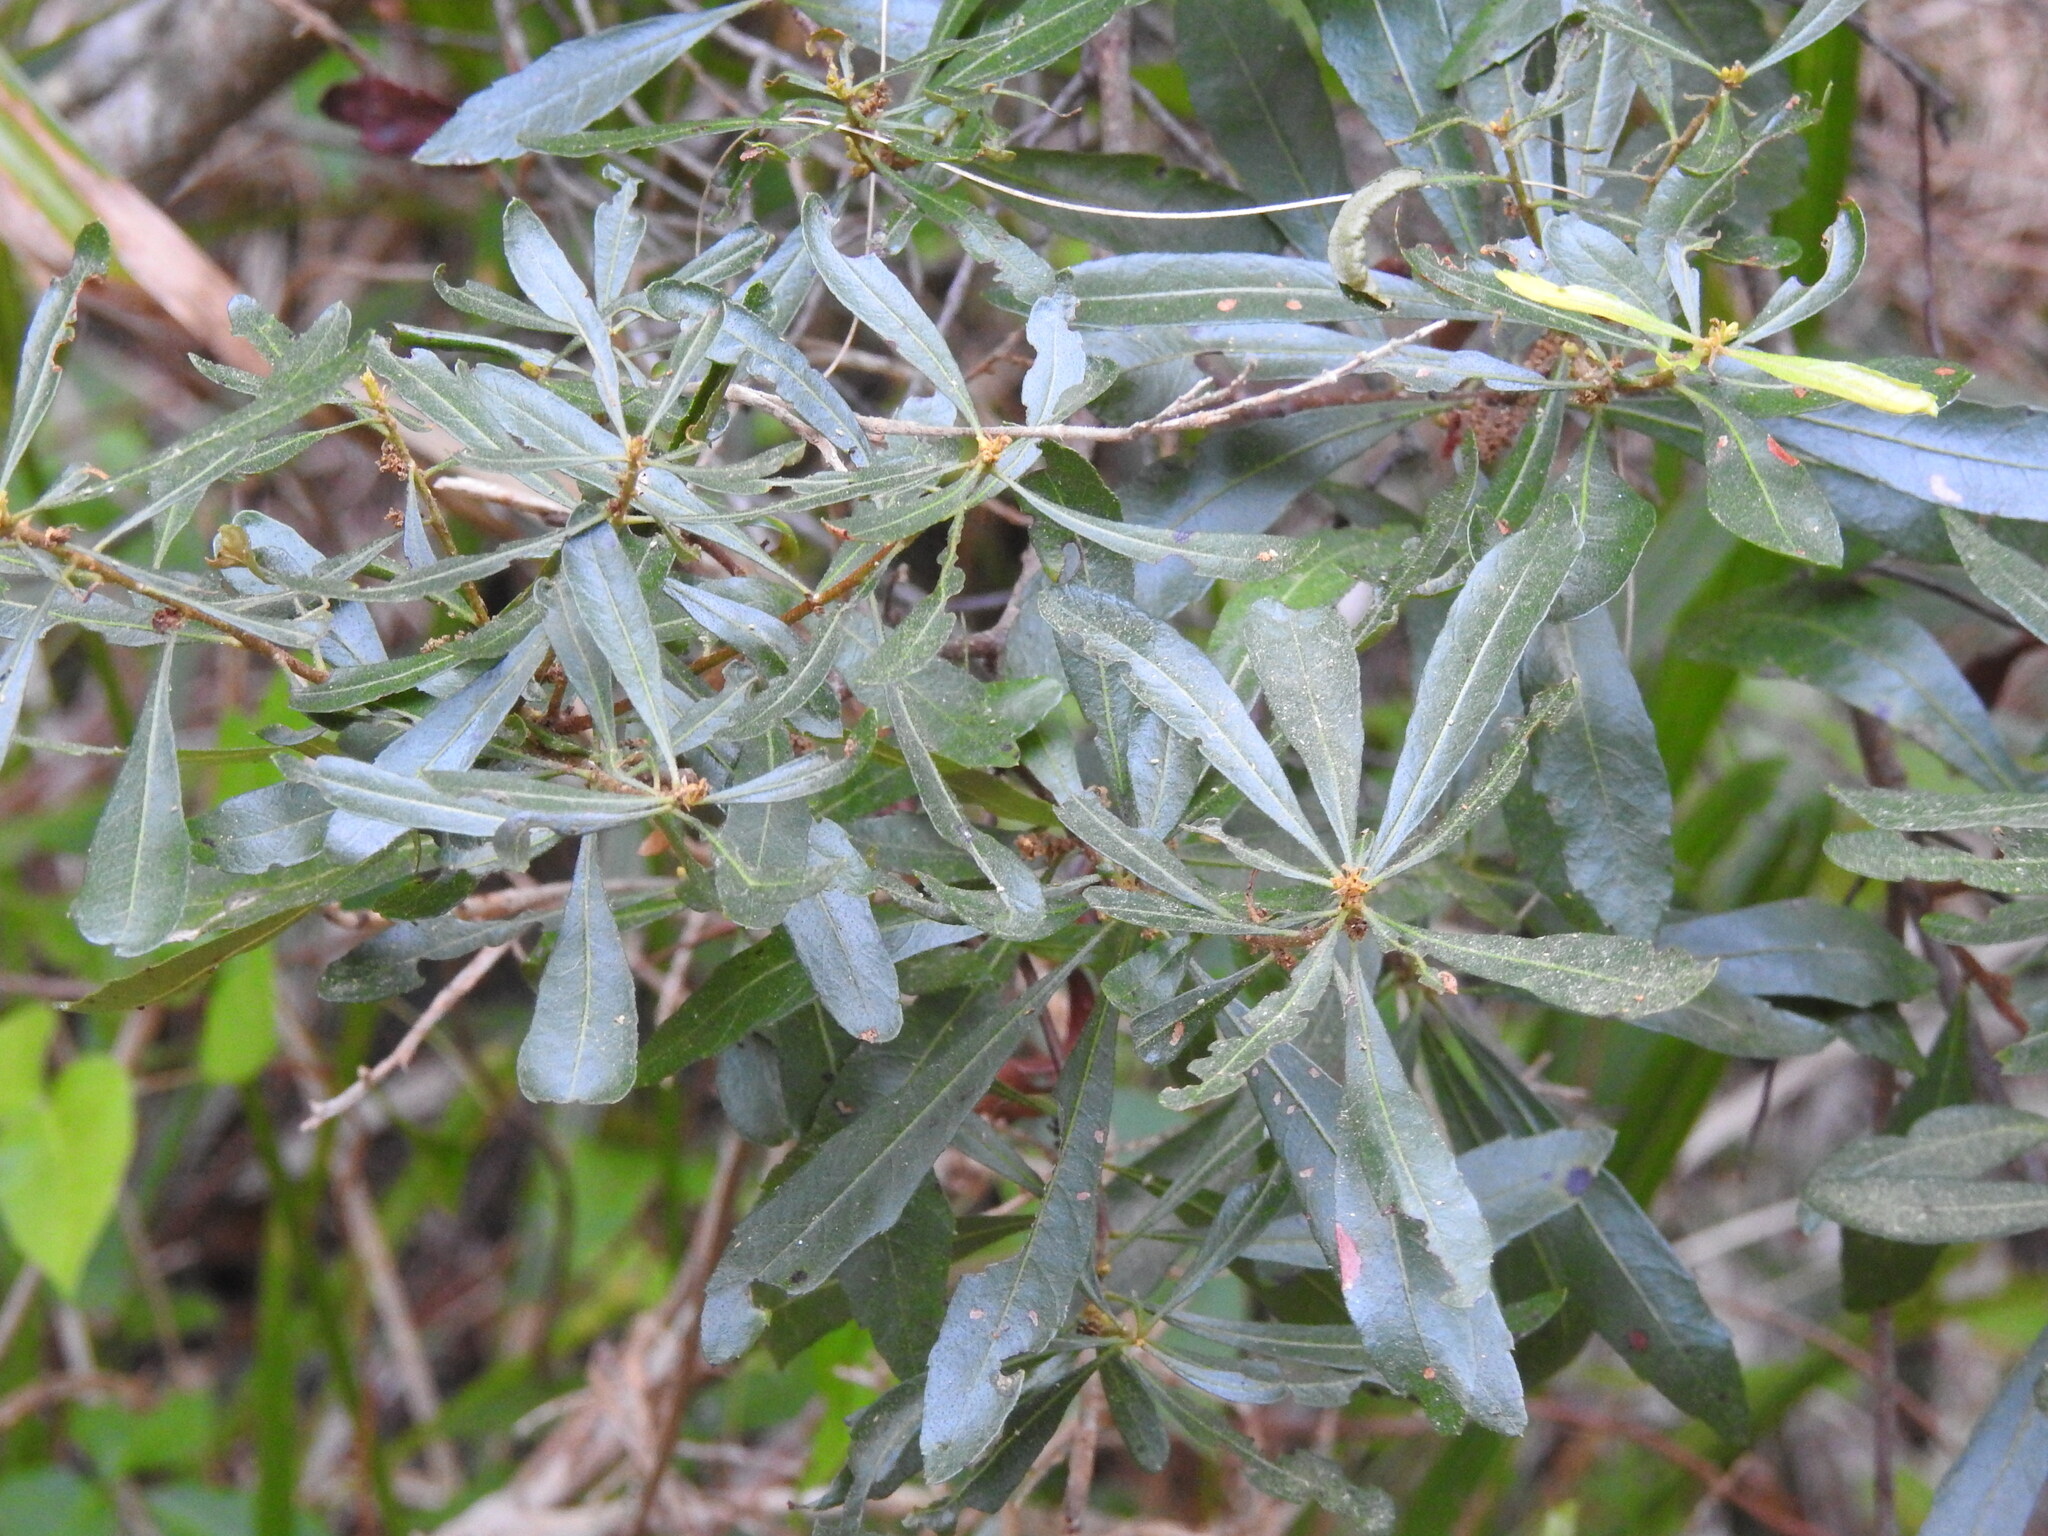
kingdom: Plantae
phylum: Tracheophyta
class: Magnoliopsida
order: Fagales
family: Myricaceae
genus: Morella
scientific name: Morella cerifera
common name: Wax myrtle
